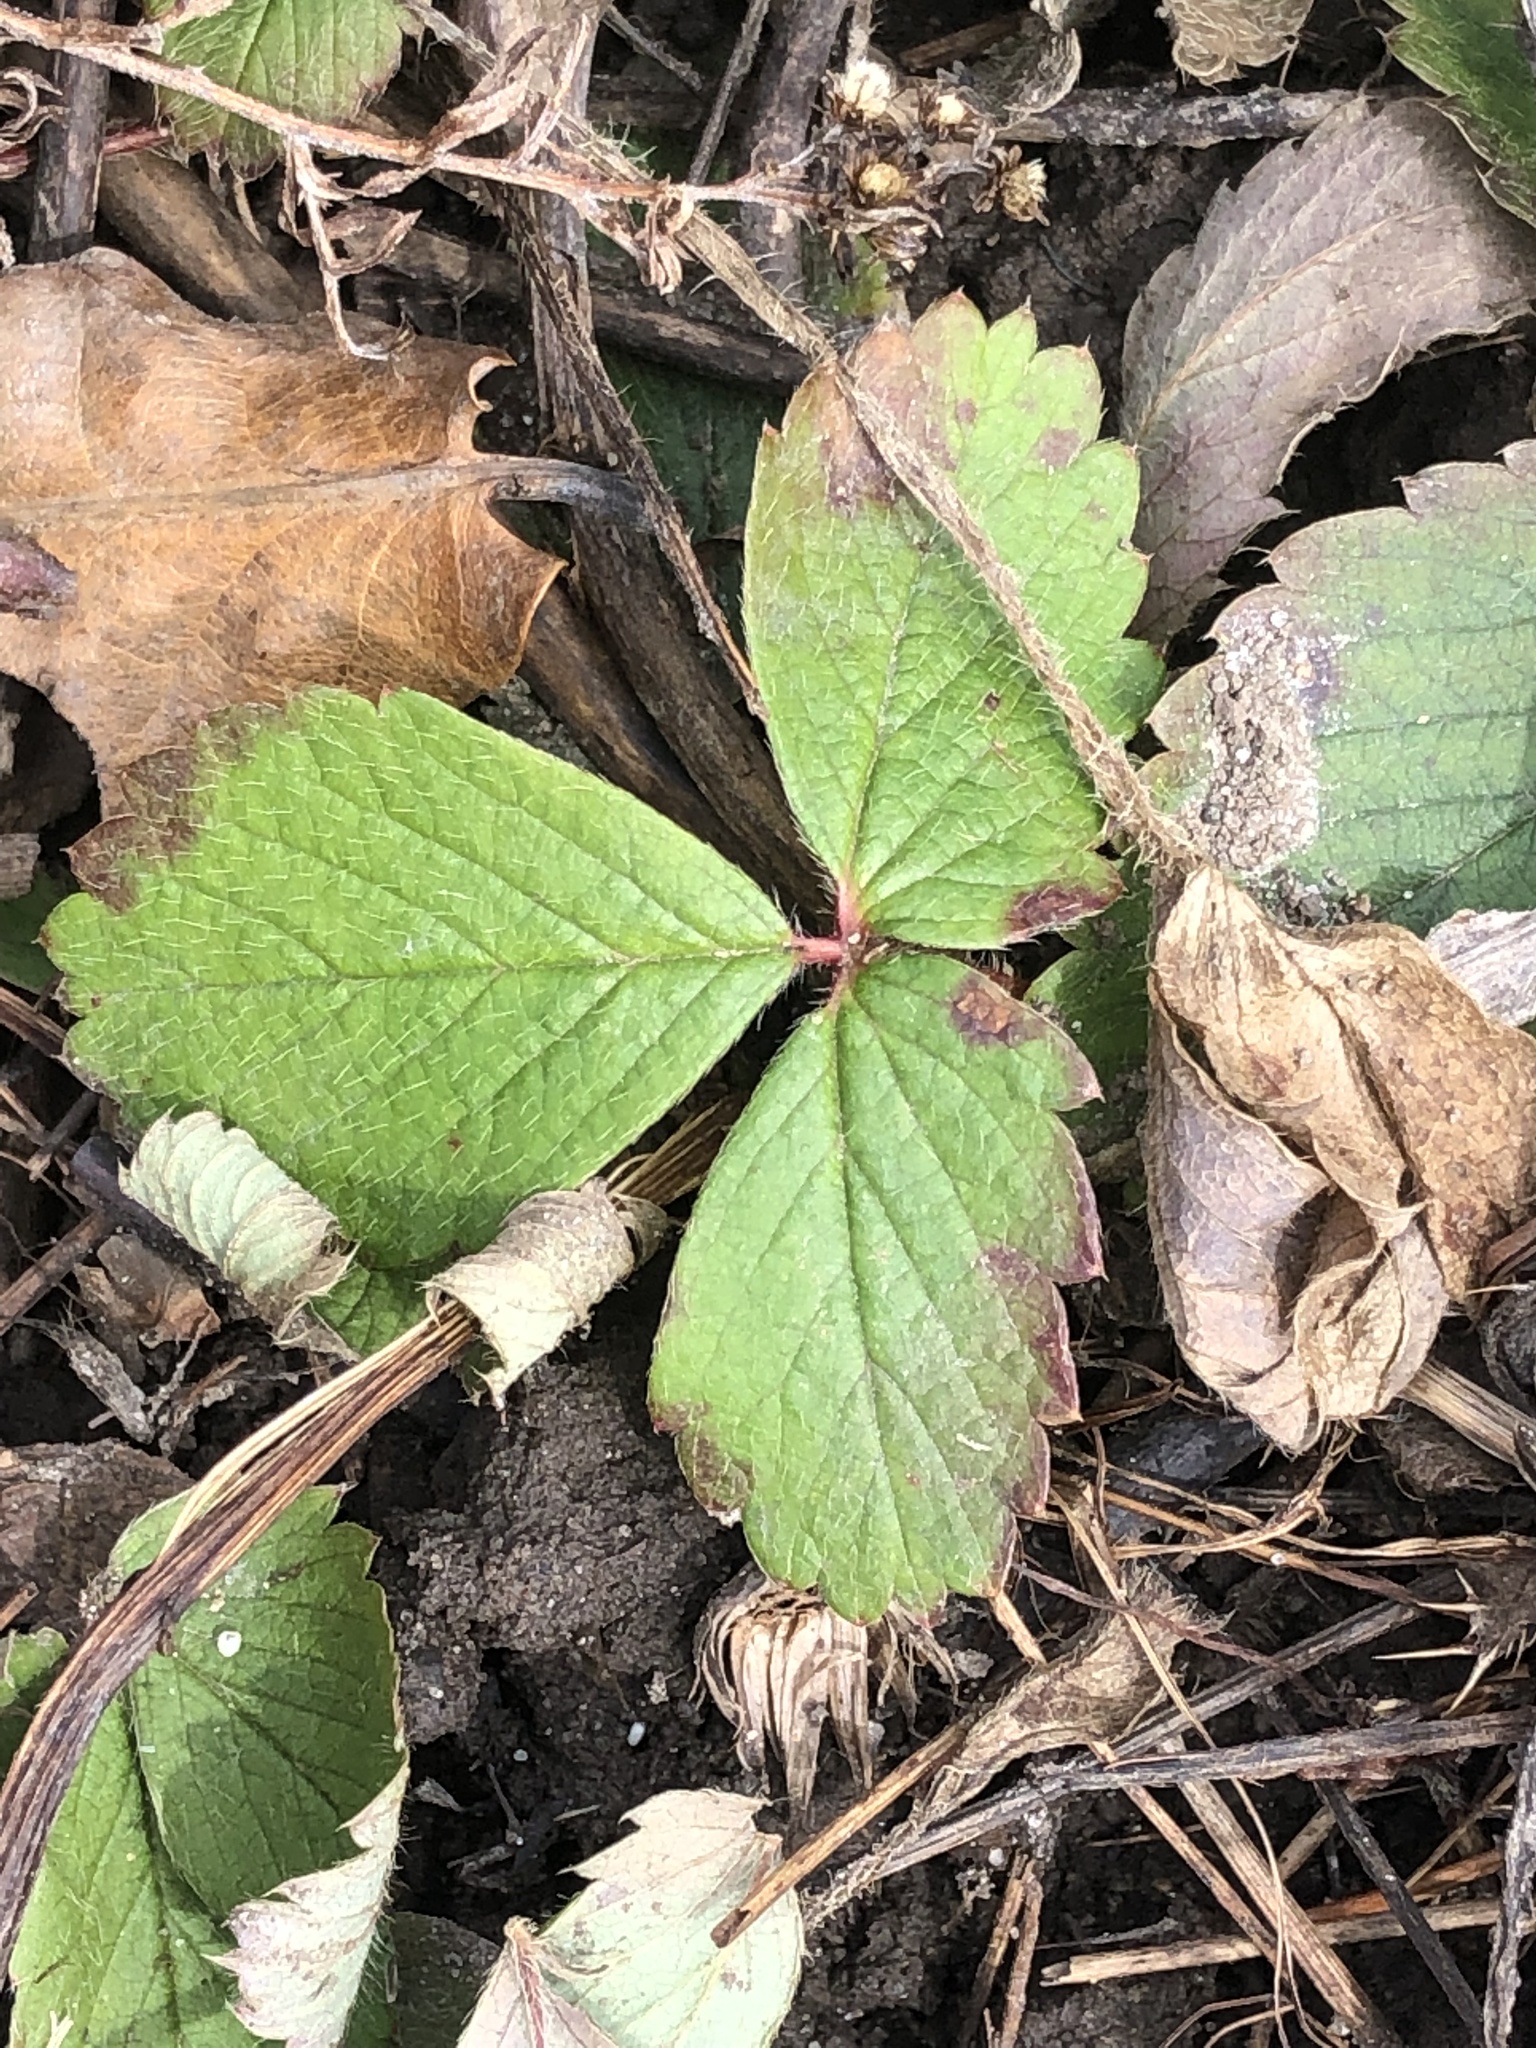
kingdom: Plantae
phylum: Tracheophyta
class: Magnoliopsida
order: Rosales
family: Rosaceae
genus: Fragaria
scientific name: Fragaria virginiana
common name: Thickleaved wild strawberry
